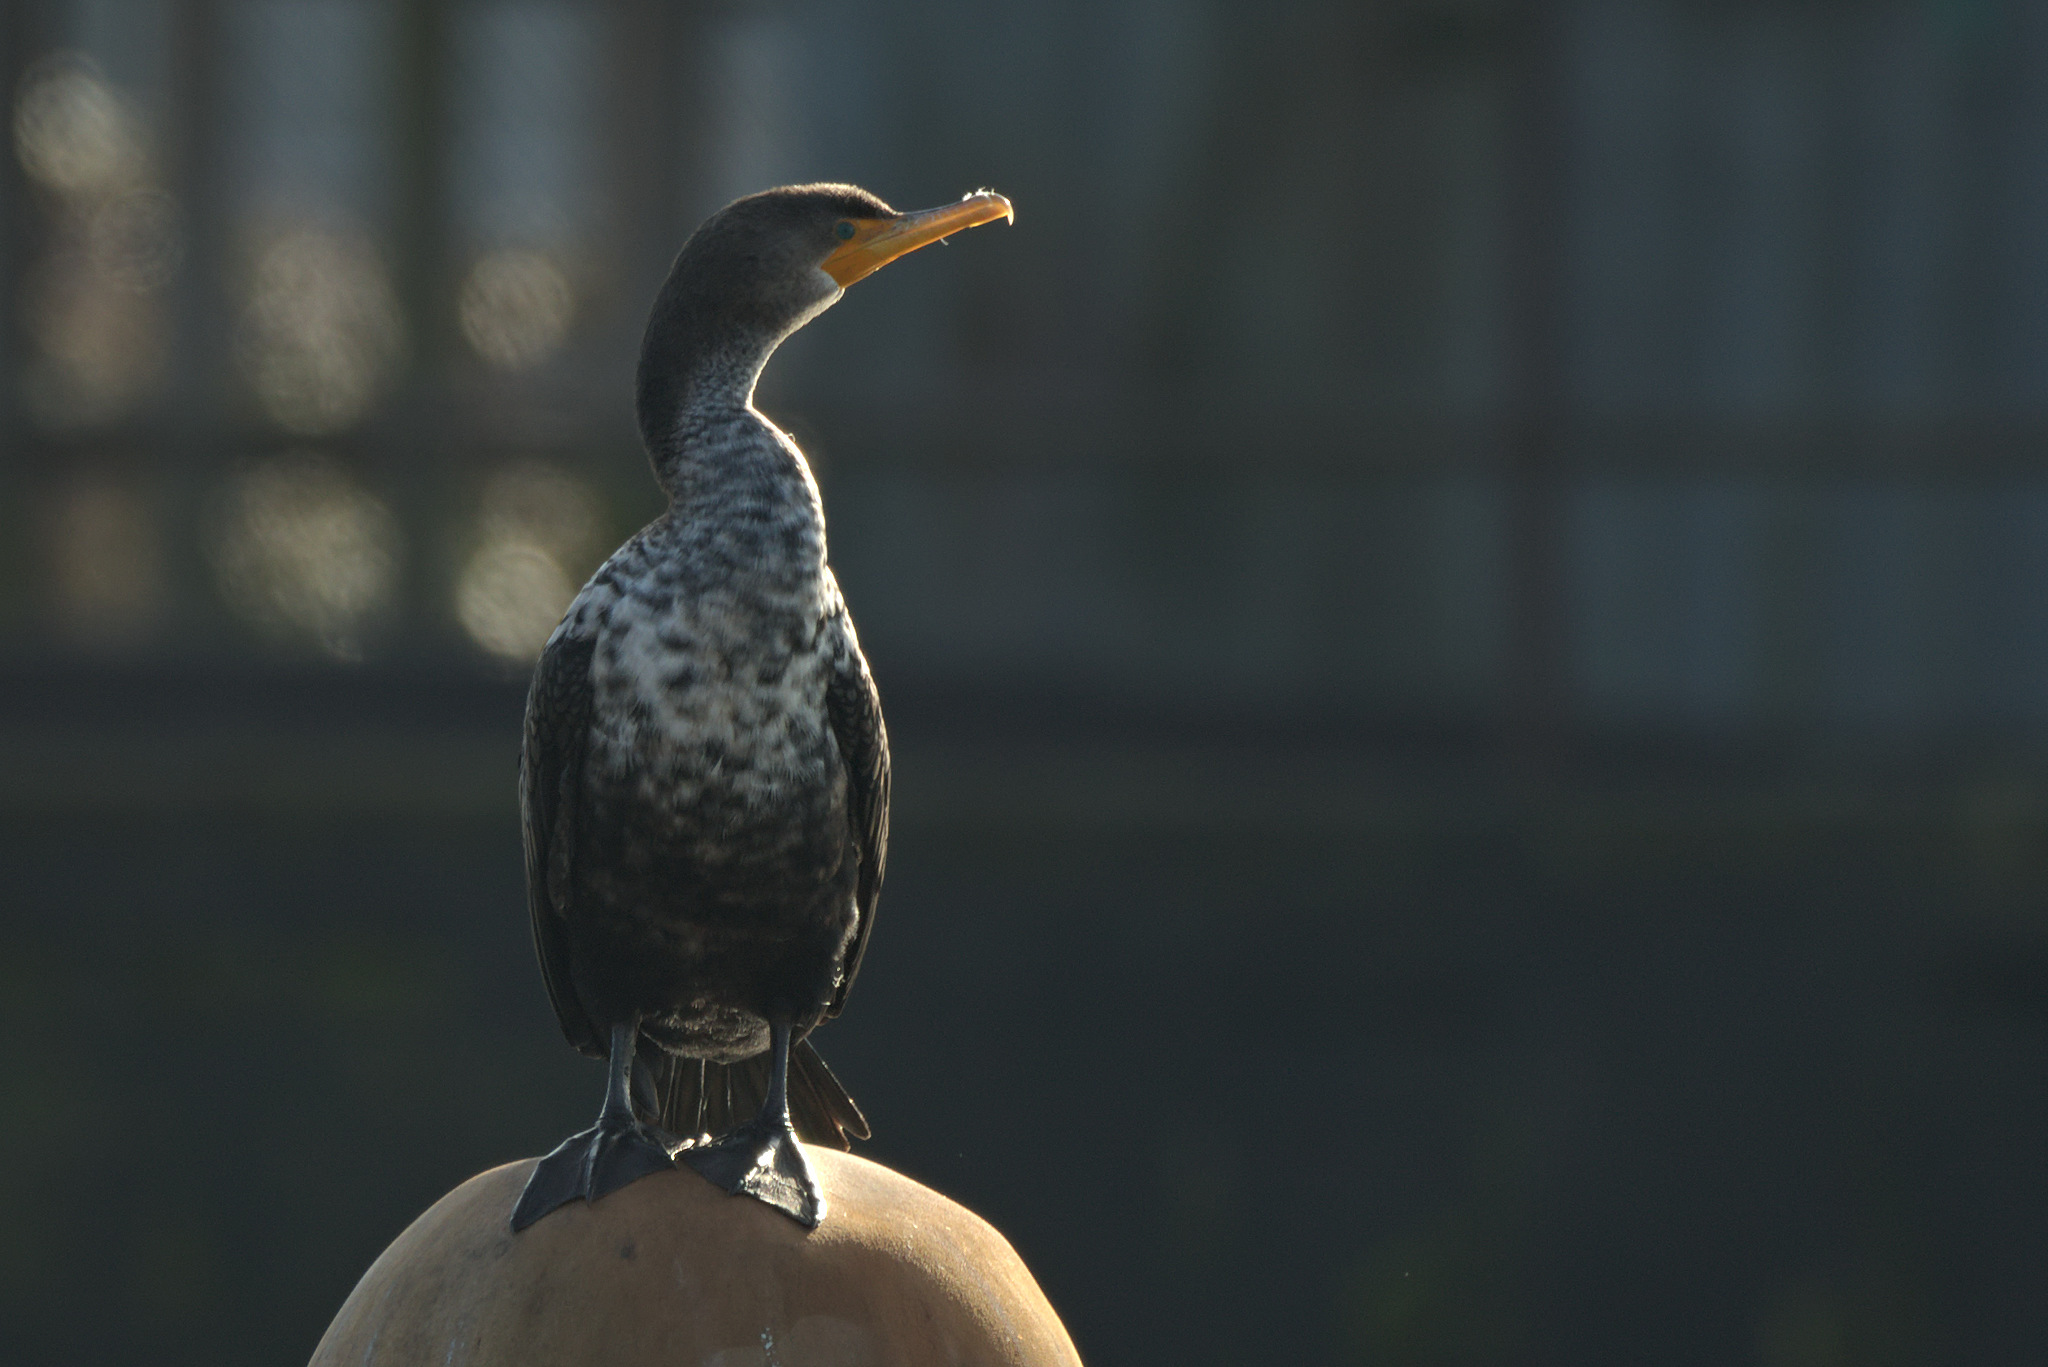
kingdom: Animalia
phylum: Chordata
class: Aves
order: Suliformes
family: Phalacrocoracidae
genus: Phalacrocorax
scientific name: Phalacrocorax auritus
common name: Double-crested cormorant
